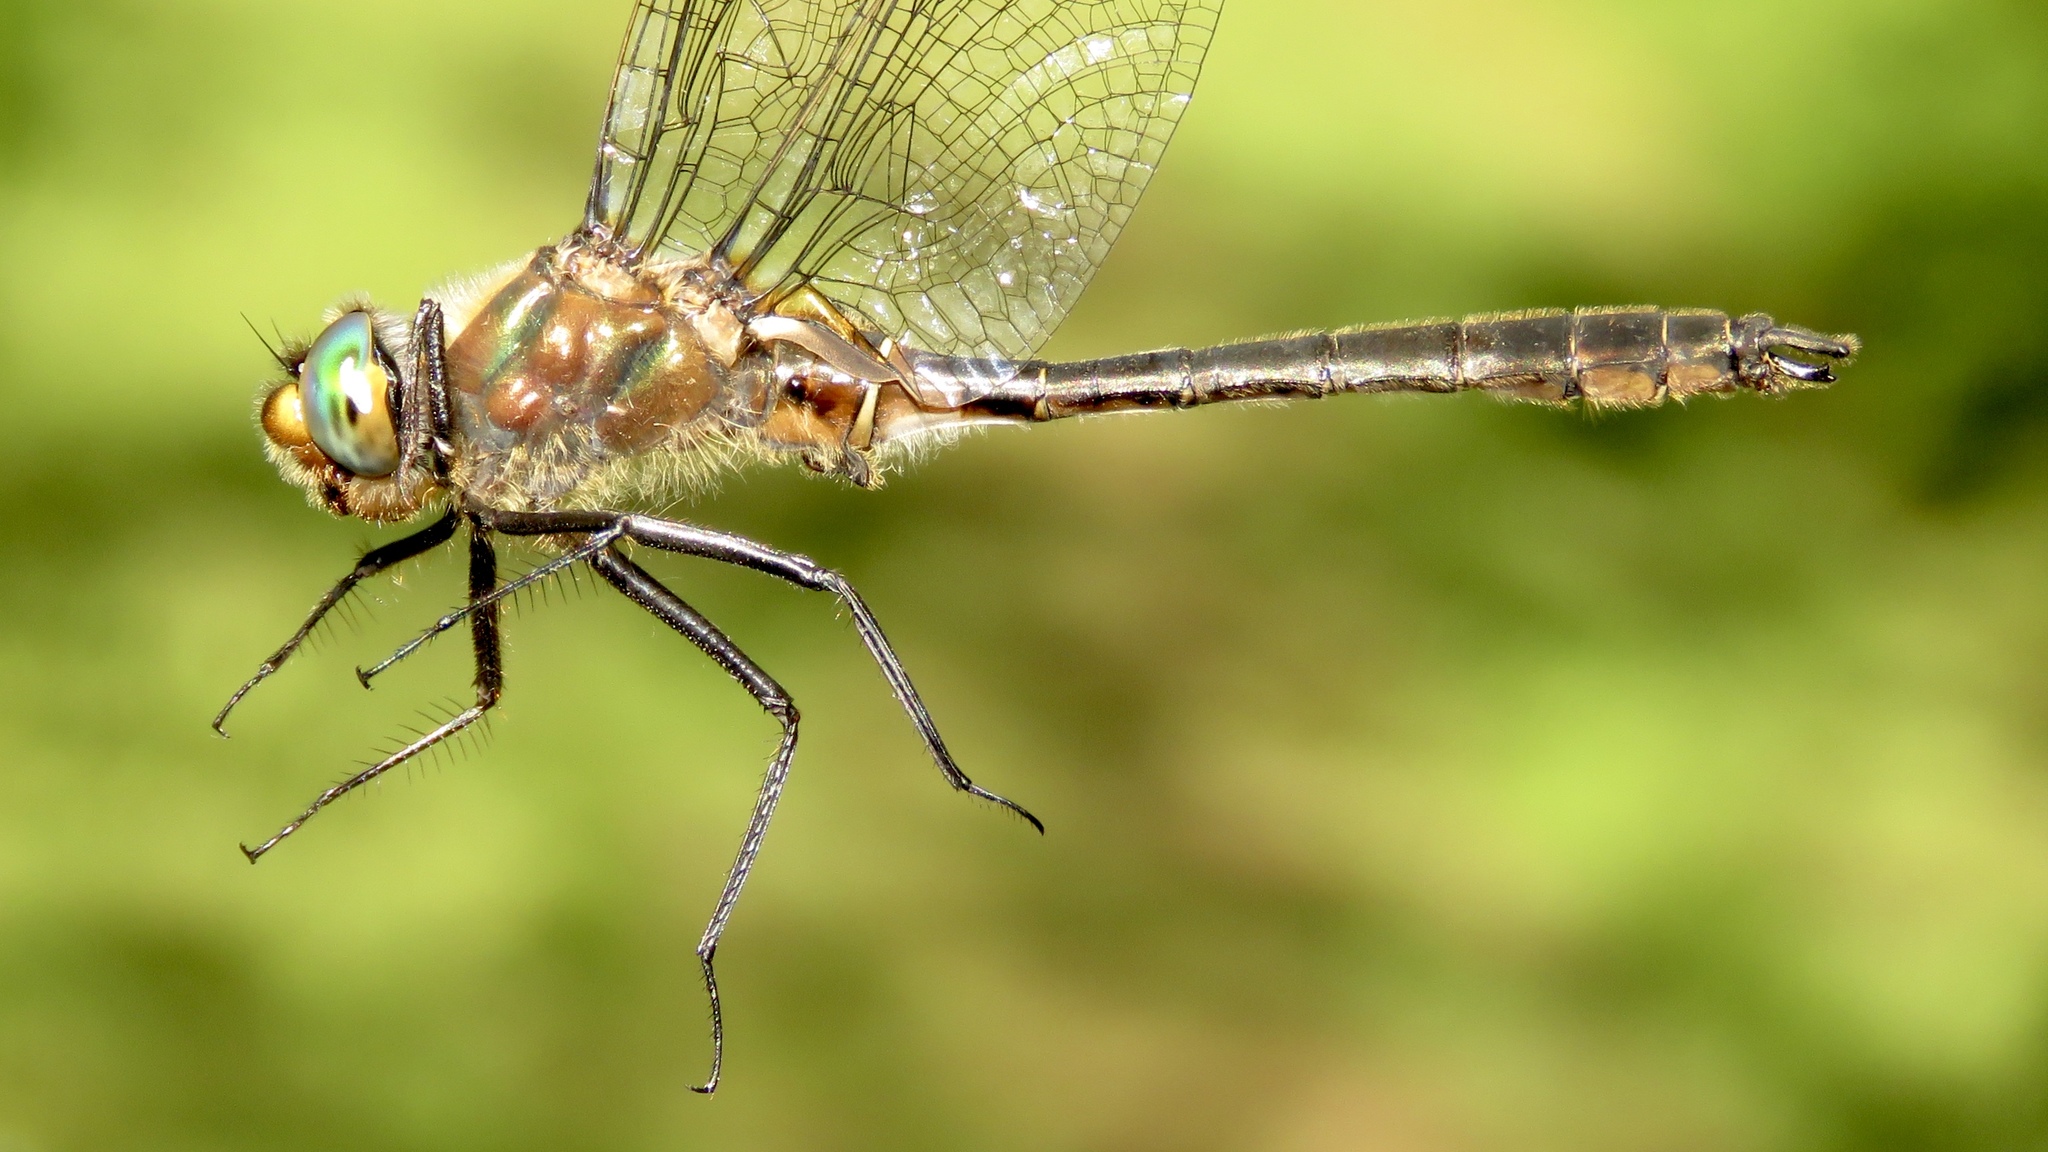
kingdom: Animalia
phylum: Arthropoda
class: Insecta
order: Odonata
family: Corduliidae
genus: Cordulia
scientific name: Cordulia shurtleffii
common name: American emerald
